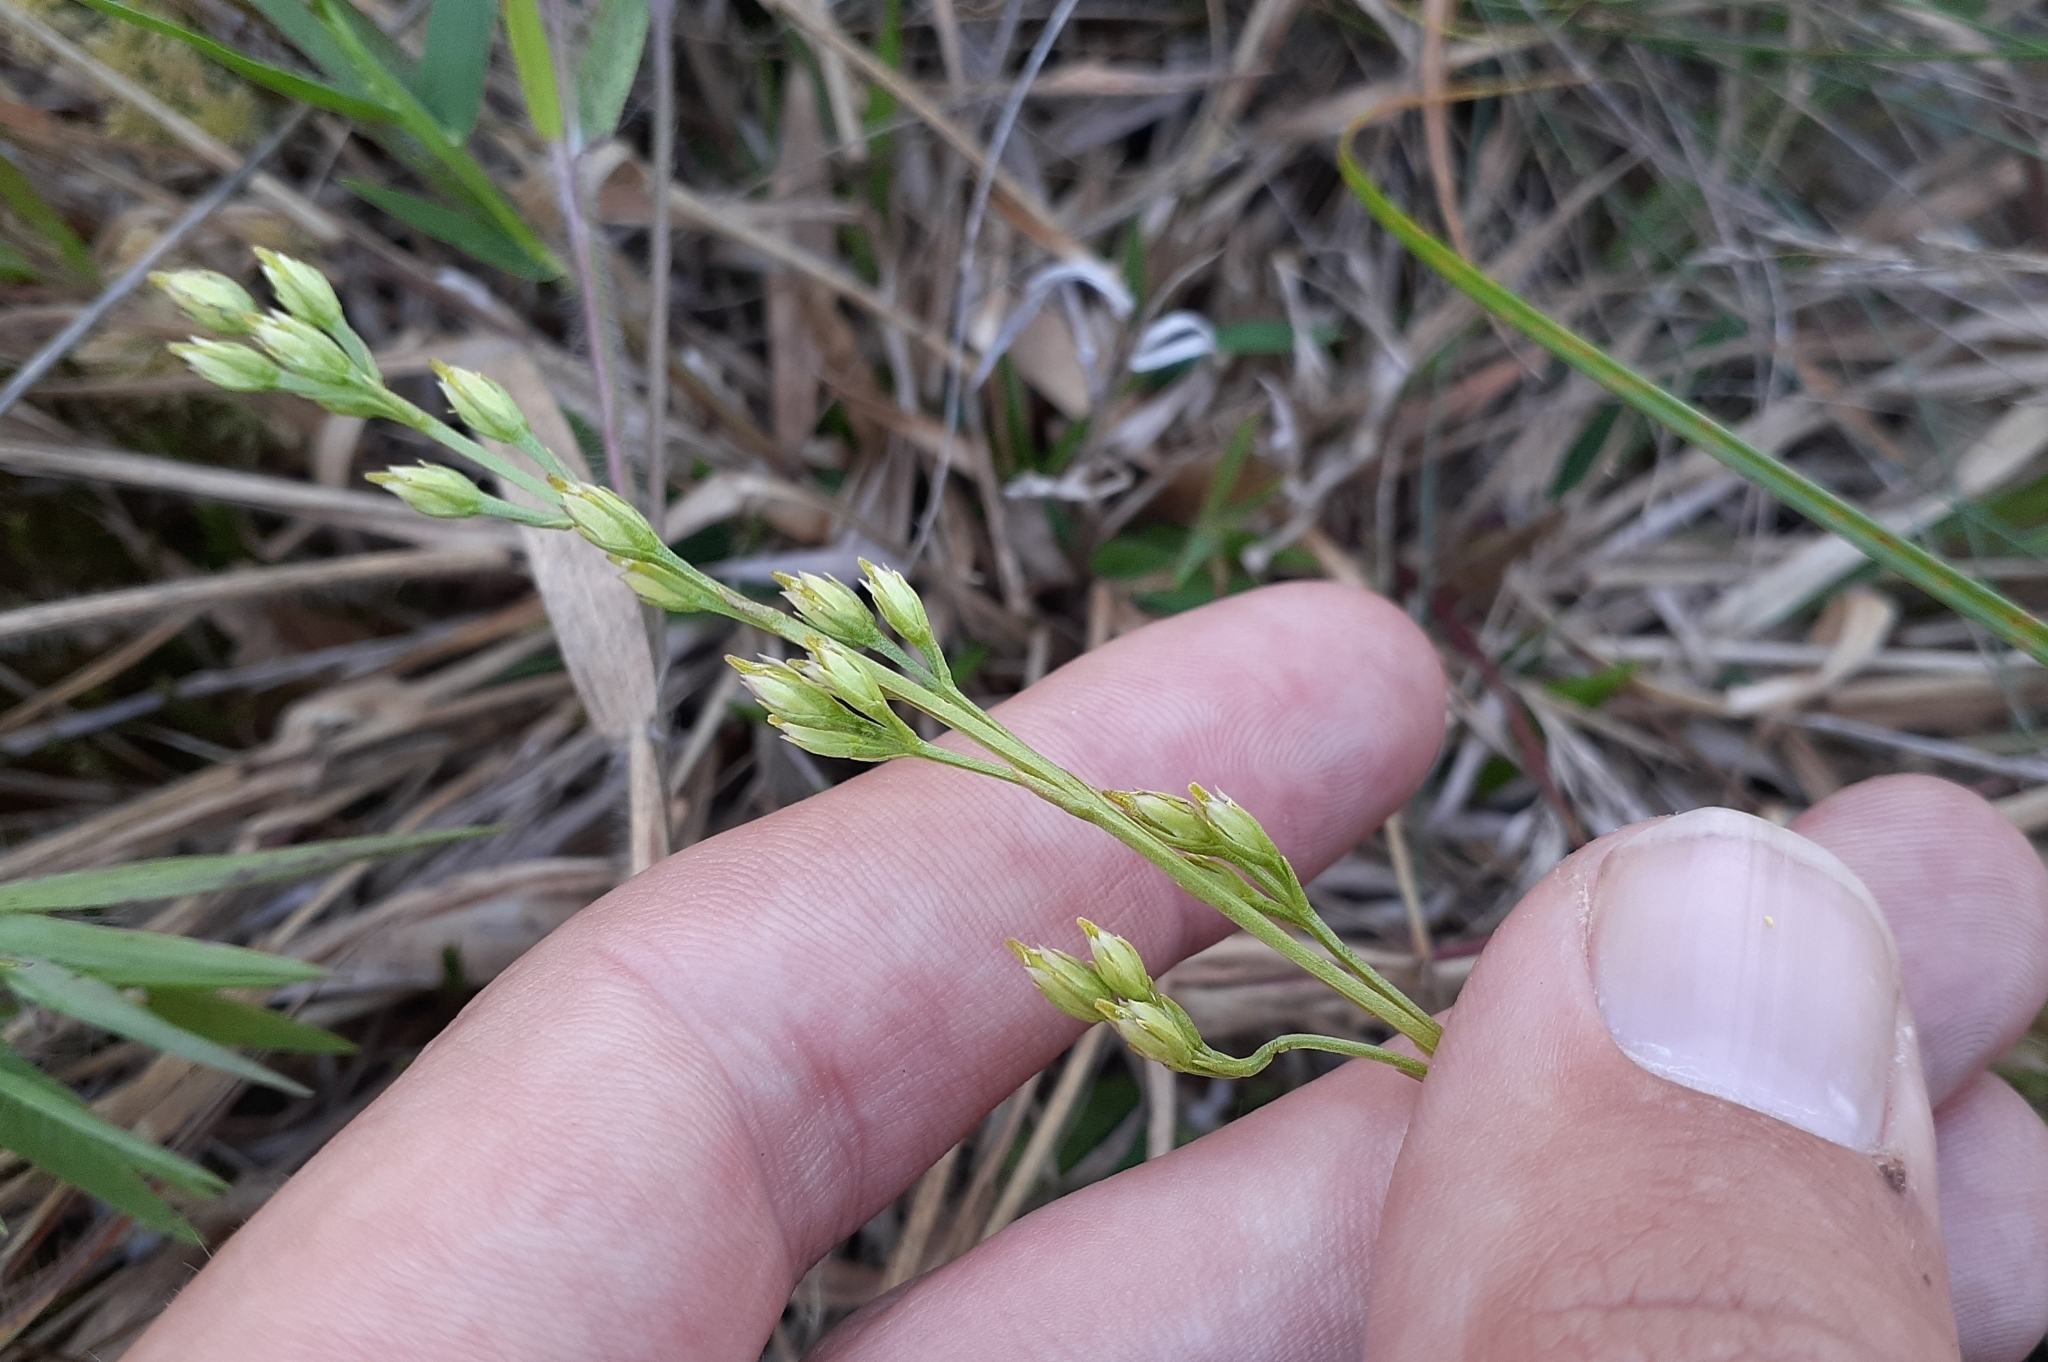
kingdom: Plantae
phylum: Tracheophyta
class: Magnoliopsida
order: Gentianales
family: Gentianaceae
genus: Bartonia
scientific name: Bartonia virginica
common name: Yellow bartonia
